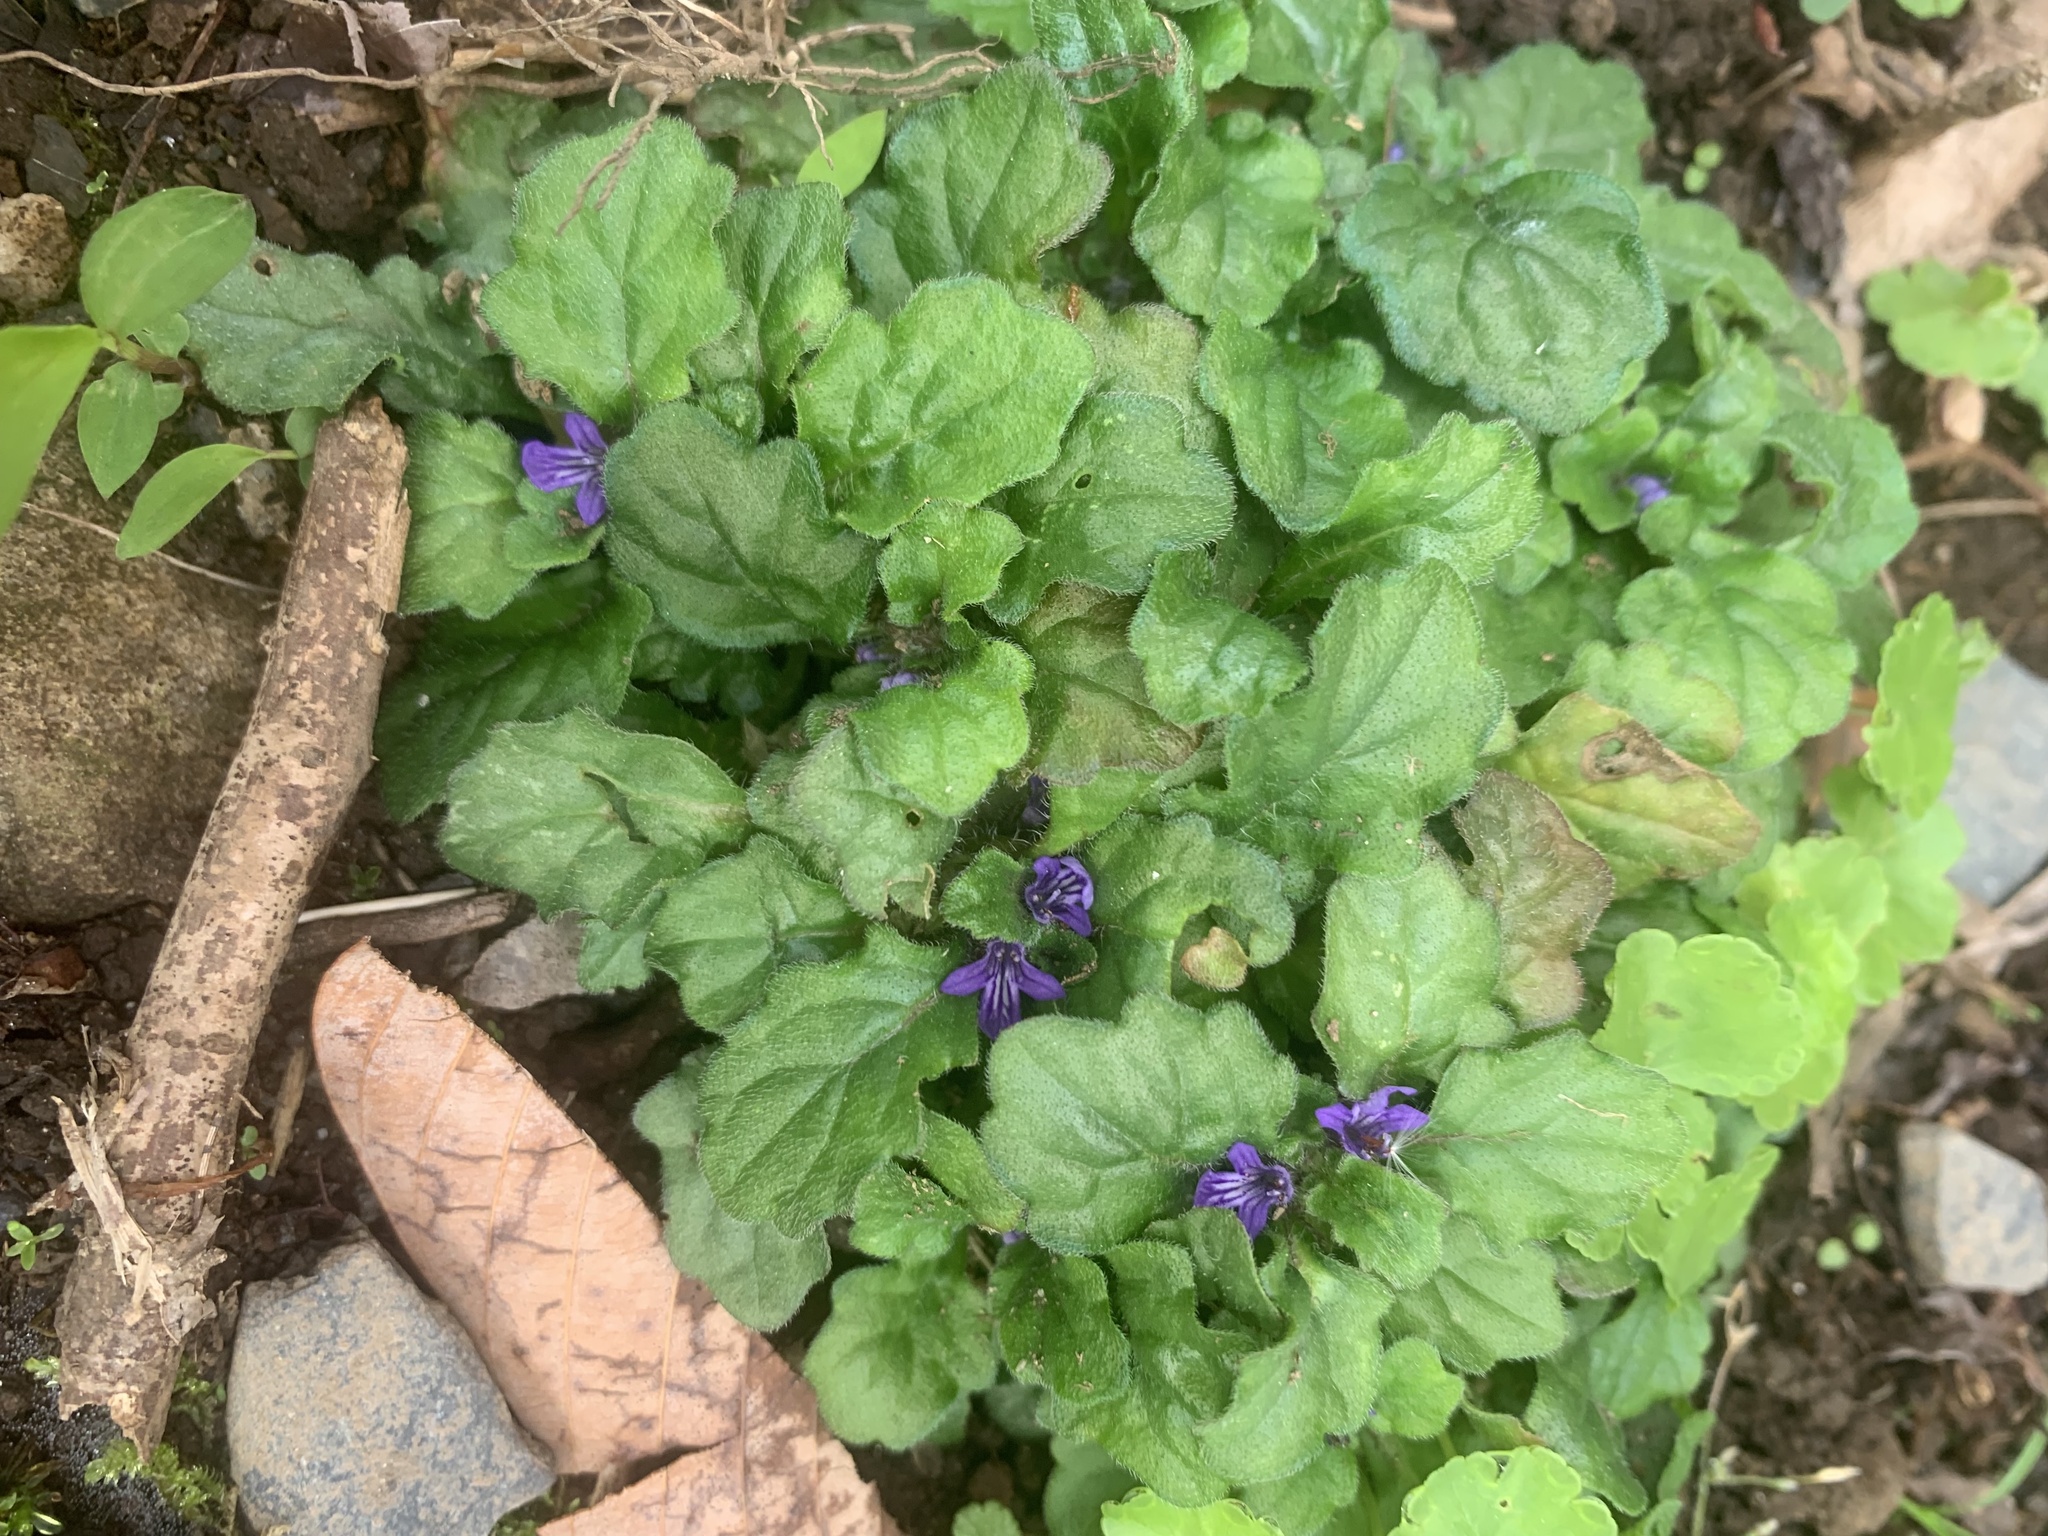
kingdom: Plantae
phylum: Tracheophyta
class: Magnoliopsida
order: Lamiales
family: Lamiaceae
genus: Ajuga
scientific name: Ajuga decumbens
